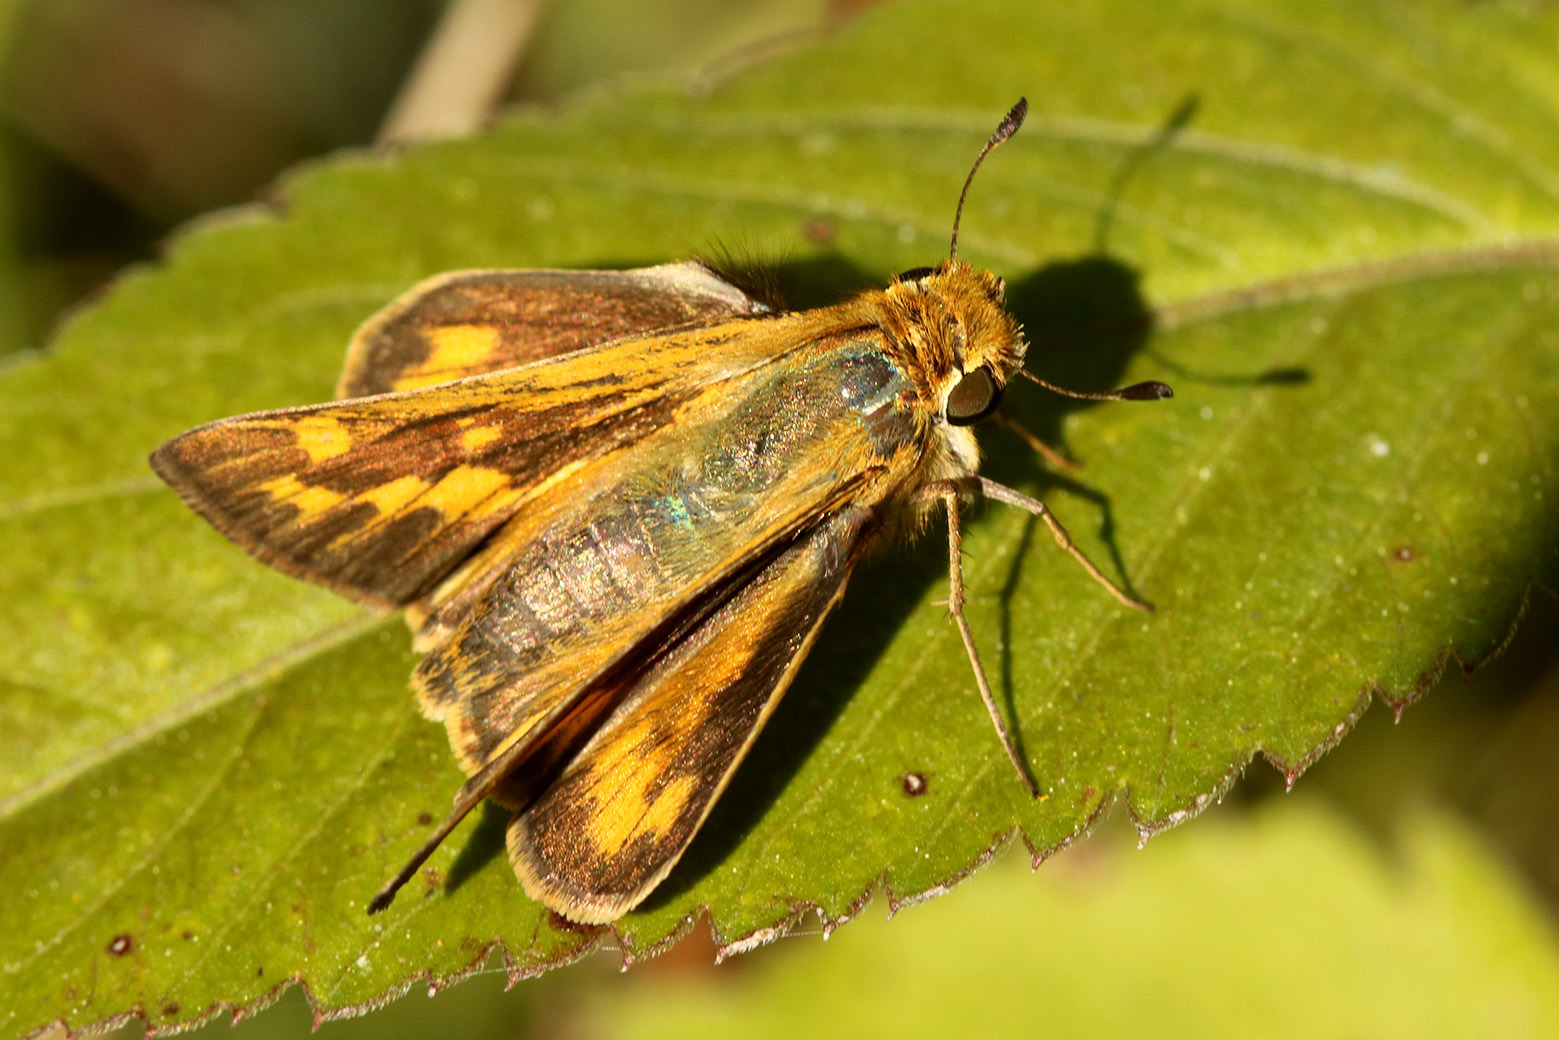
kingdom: Animalia
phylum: Arthropoda
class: Insecta
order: Lepidoptera
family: Hesperiidae
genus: Hylephila
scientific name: Hylephila phyleus
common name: Fiery skipper
